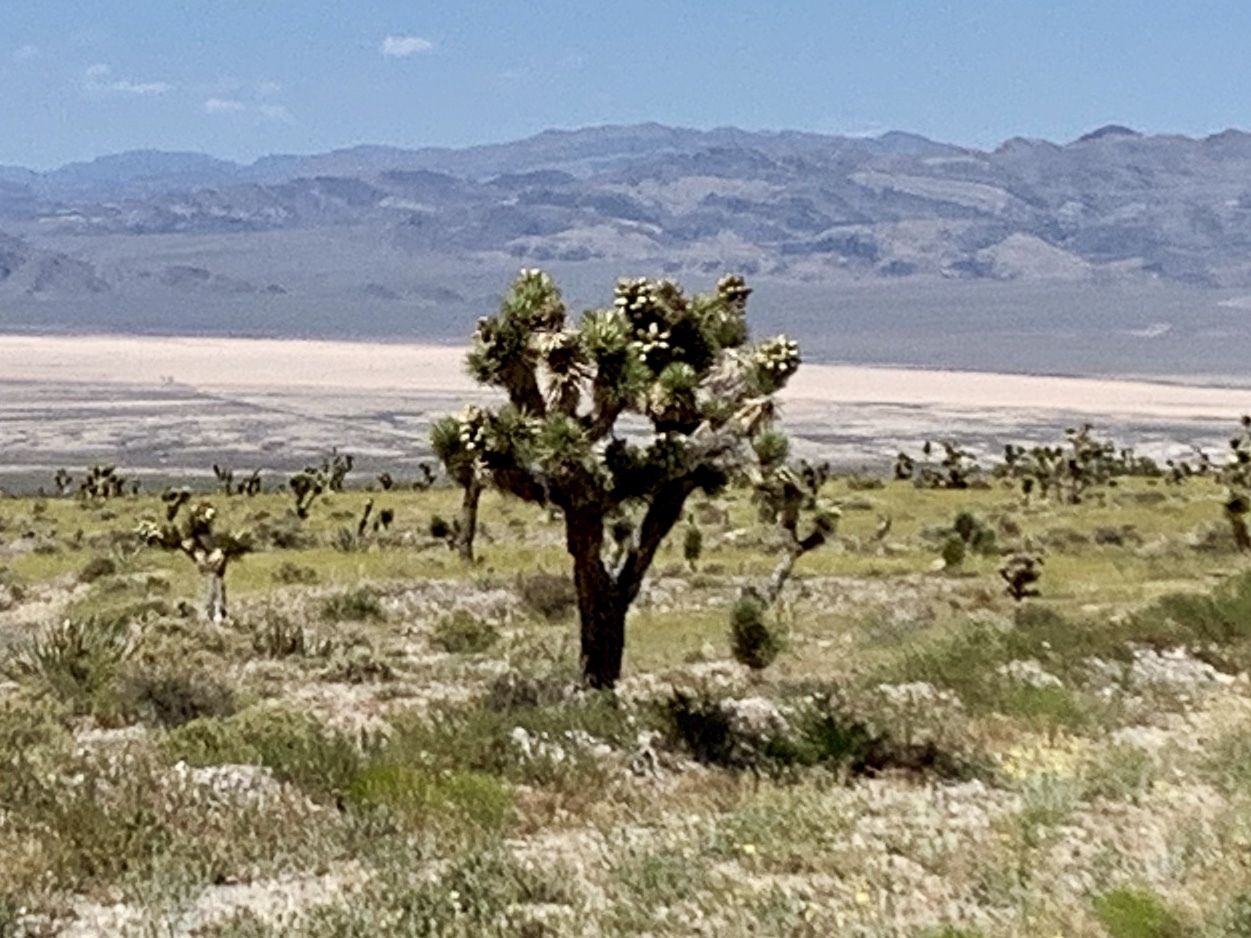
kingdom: Plantae
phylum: Tracheophyta
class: Liliopsida
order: Asparagales
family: Asparagaceae
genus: Yucca
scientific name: Yucca brevifolia
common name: Joshua tree
